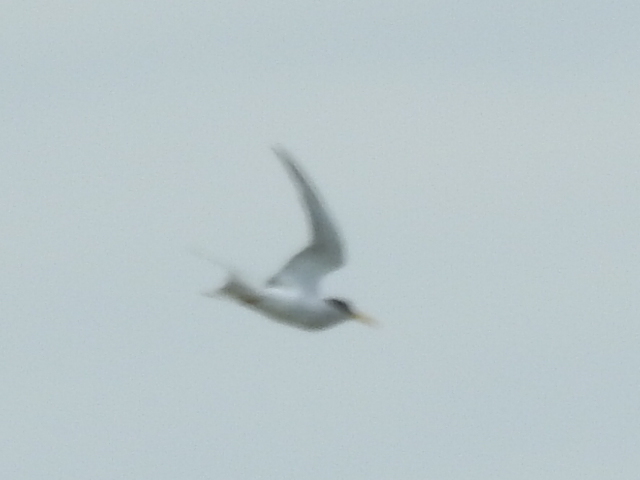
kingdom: Animalia
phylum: Chordata
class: Aves
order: Charadriiformes
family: Laridae
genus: Sterna
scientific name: Sterna forsteri
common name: Forster's tern
